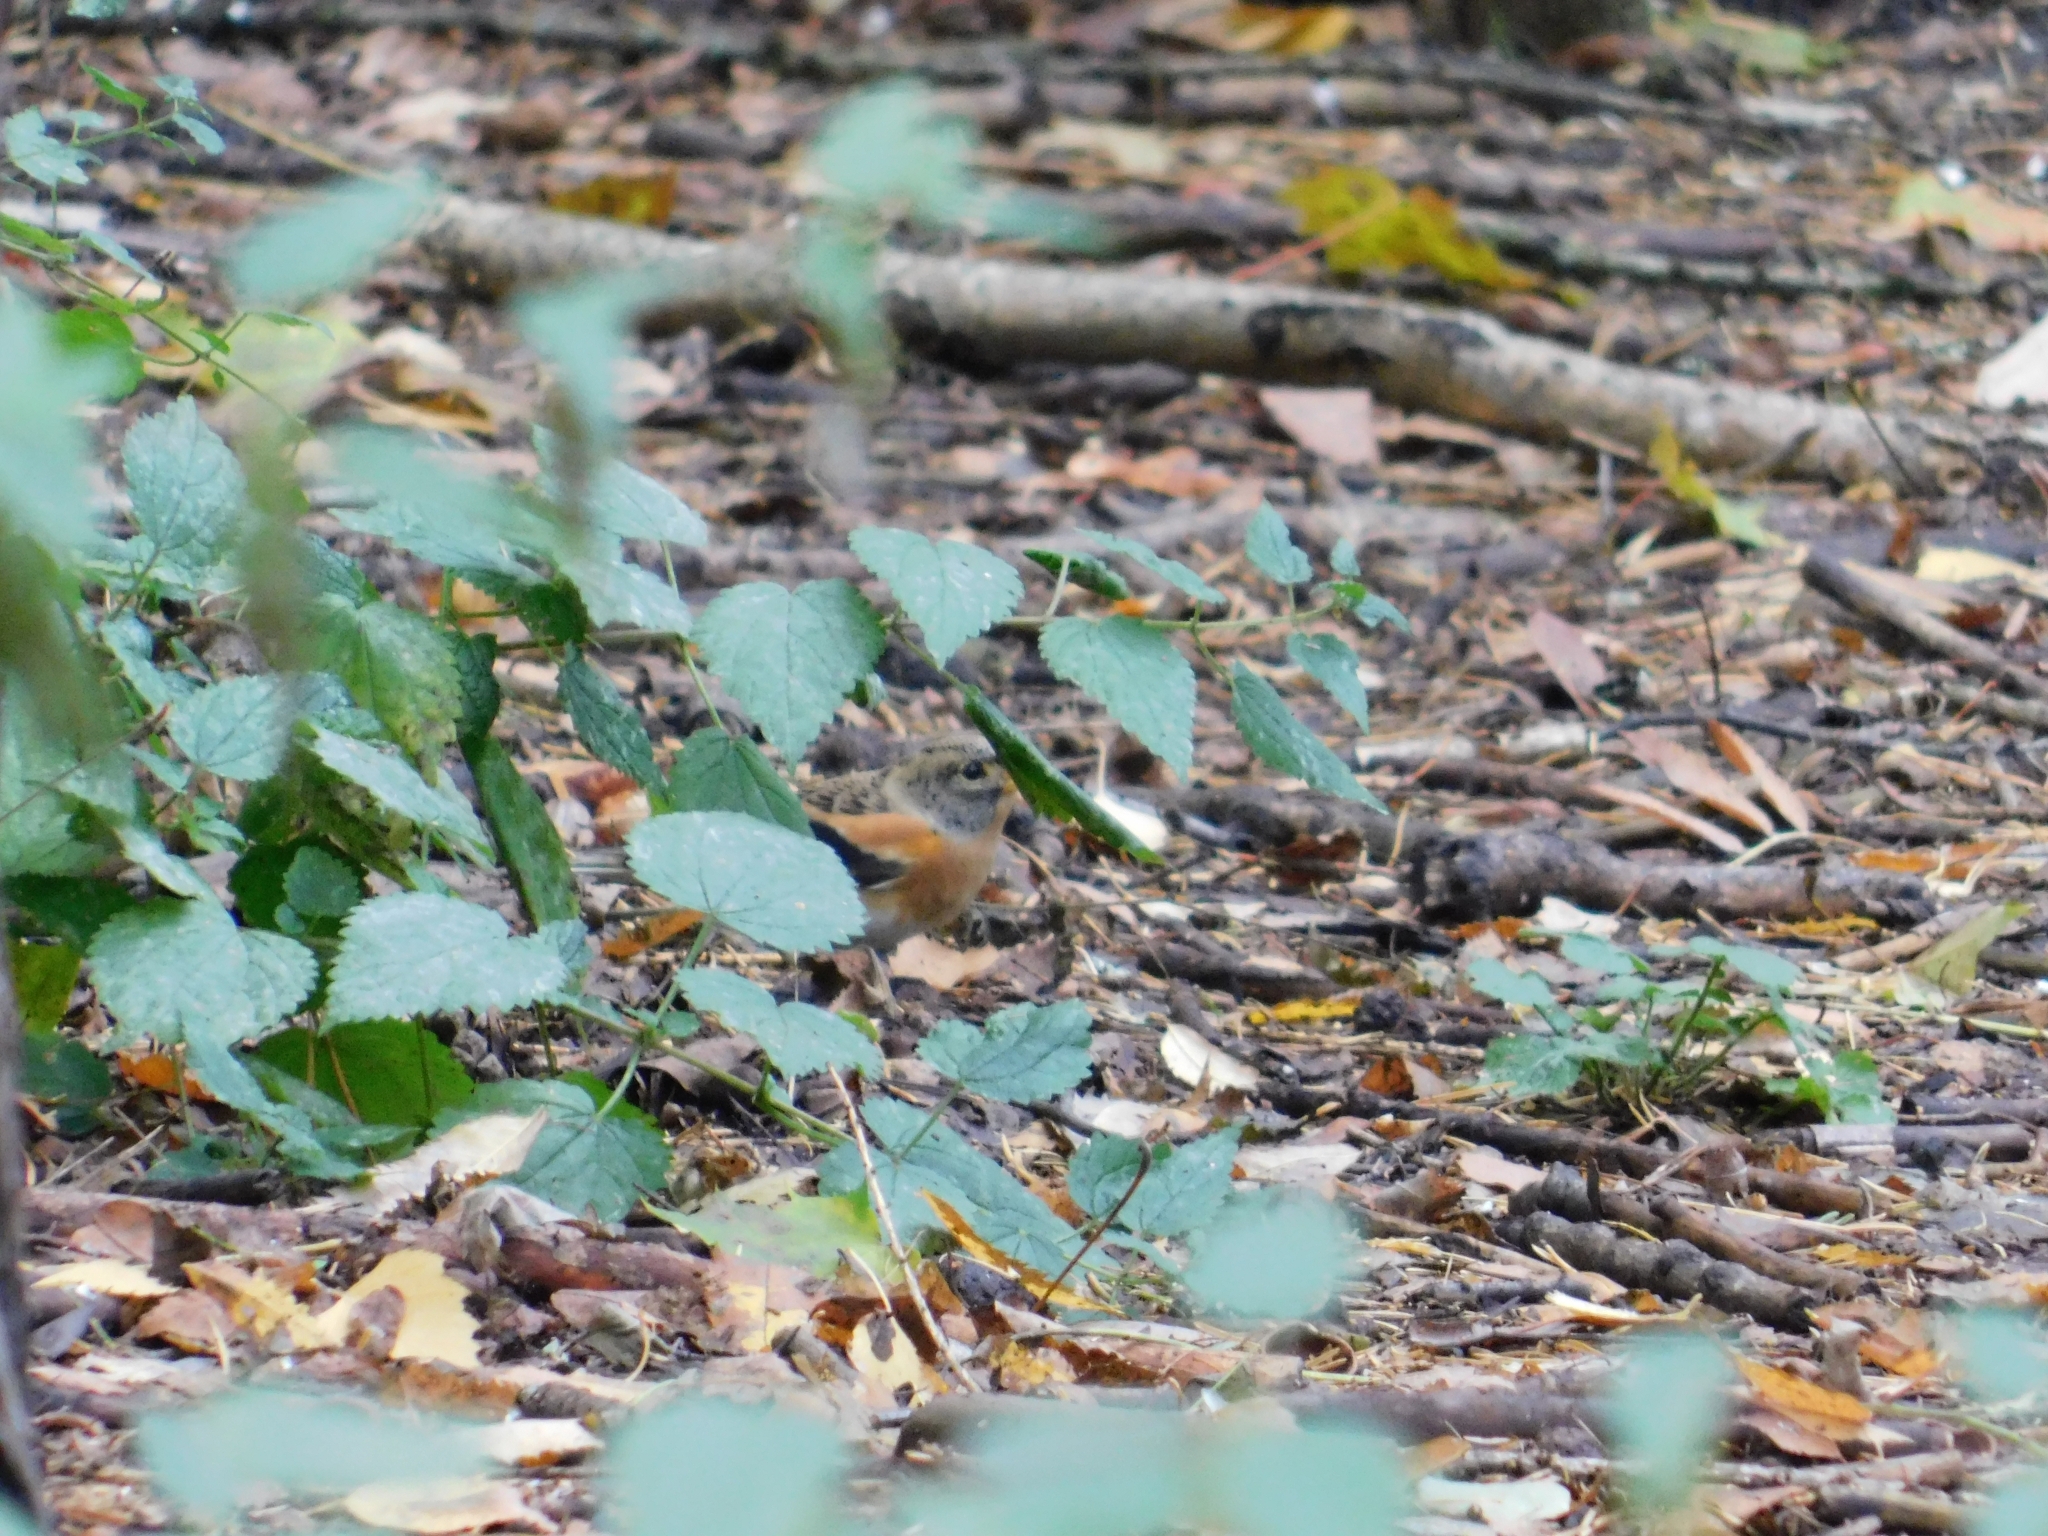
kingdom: Animalia
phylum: Chordata
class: Aves
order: Passeriformes
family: Fringillidae
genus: Fringilla
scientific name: Fringilla montifringilla
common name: Brambling
